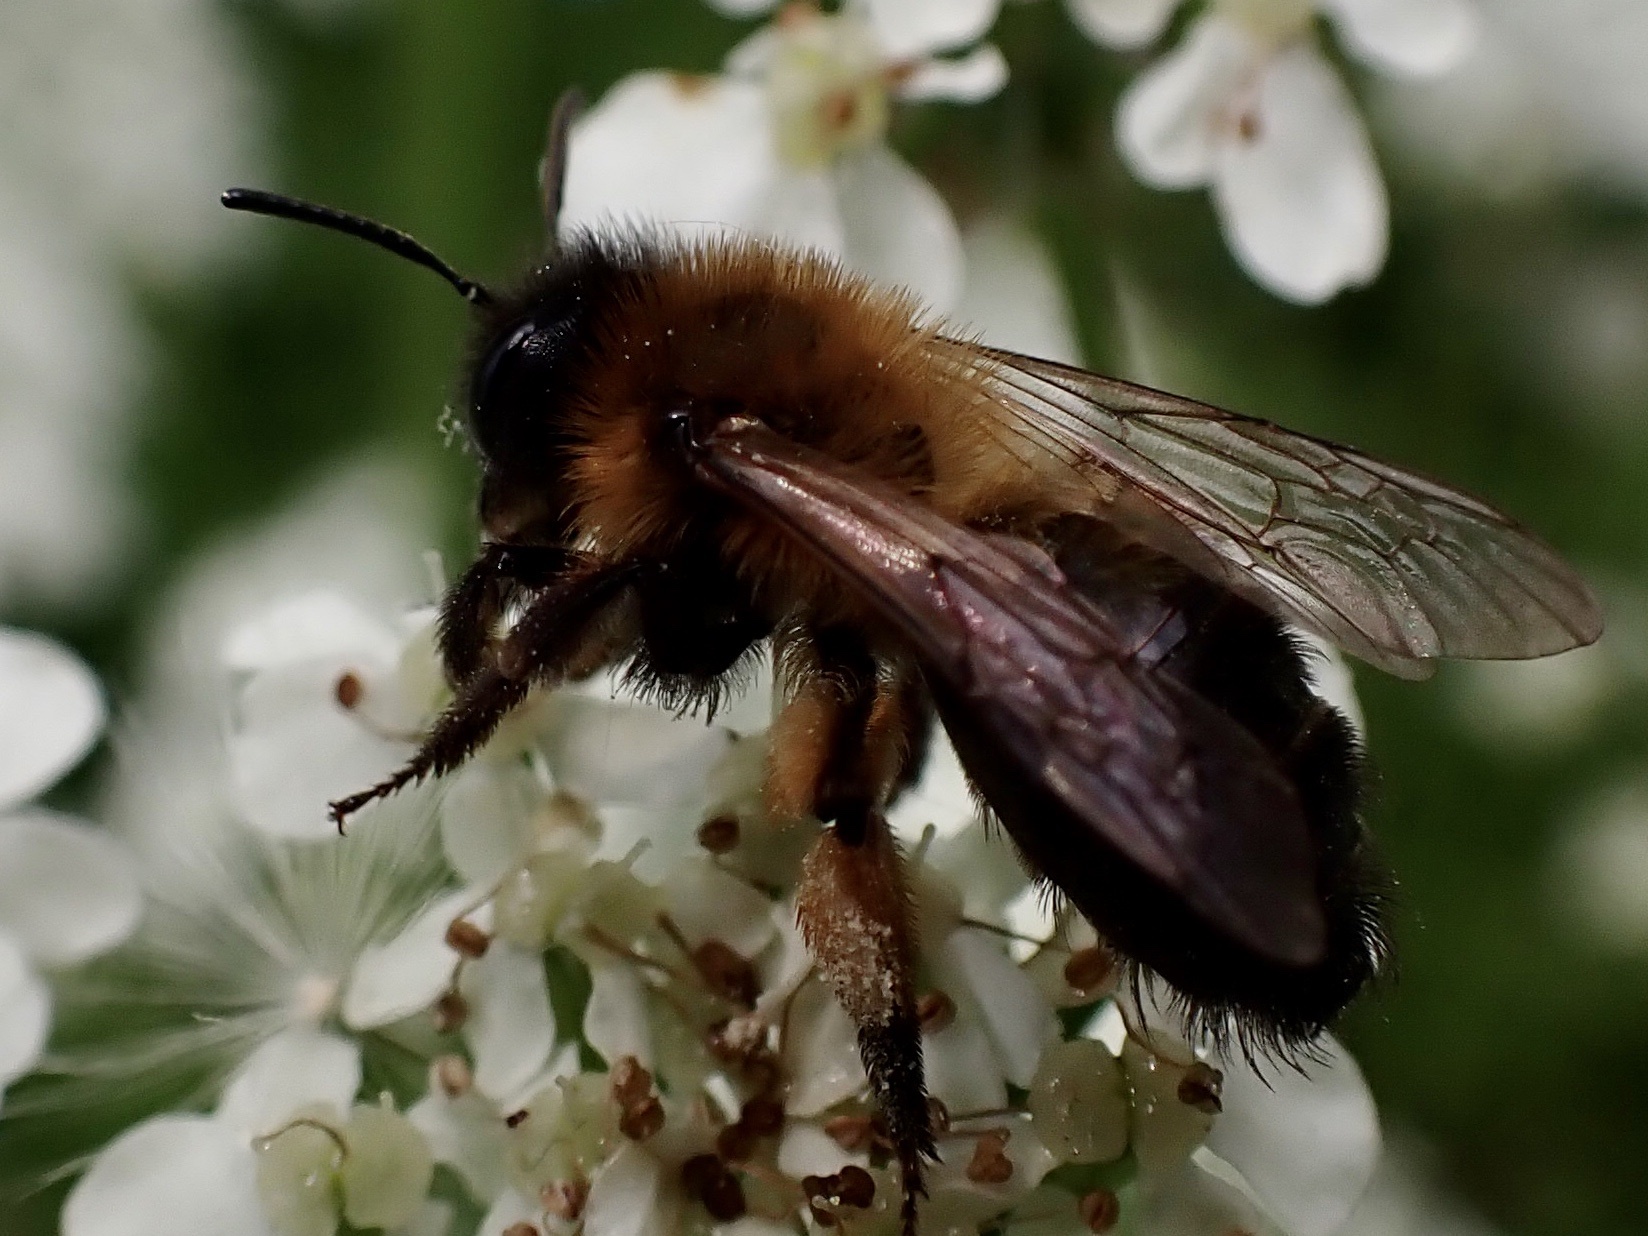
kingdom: Animalia
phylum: Arthropoda
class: Insecta
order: Hymenoptera
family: Andrenidae
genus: Andrena
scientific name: Andrena nigroaenea
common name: Buffish mining bee
